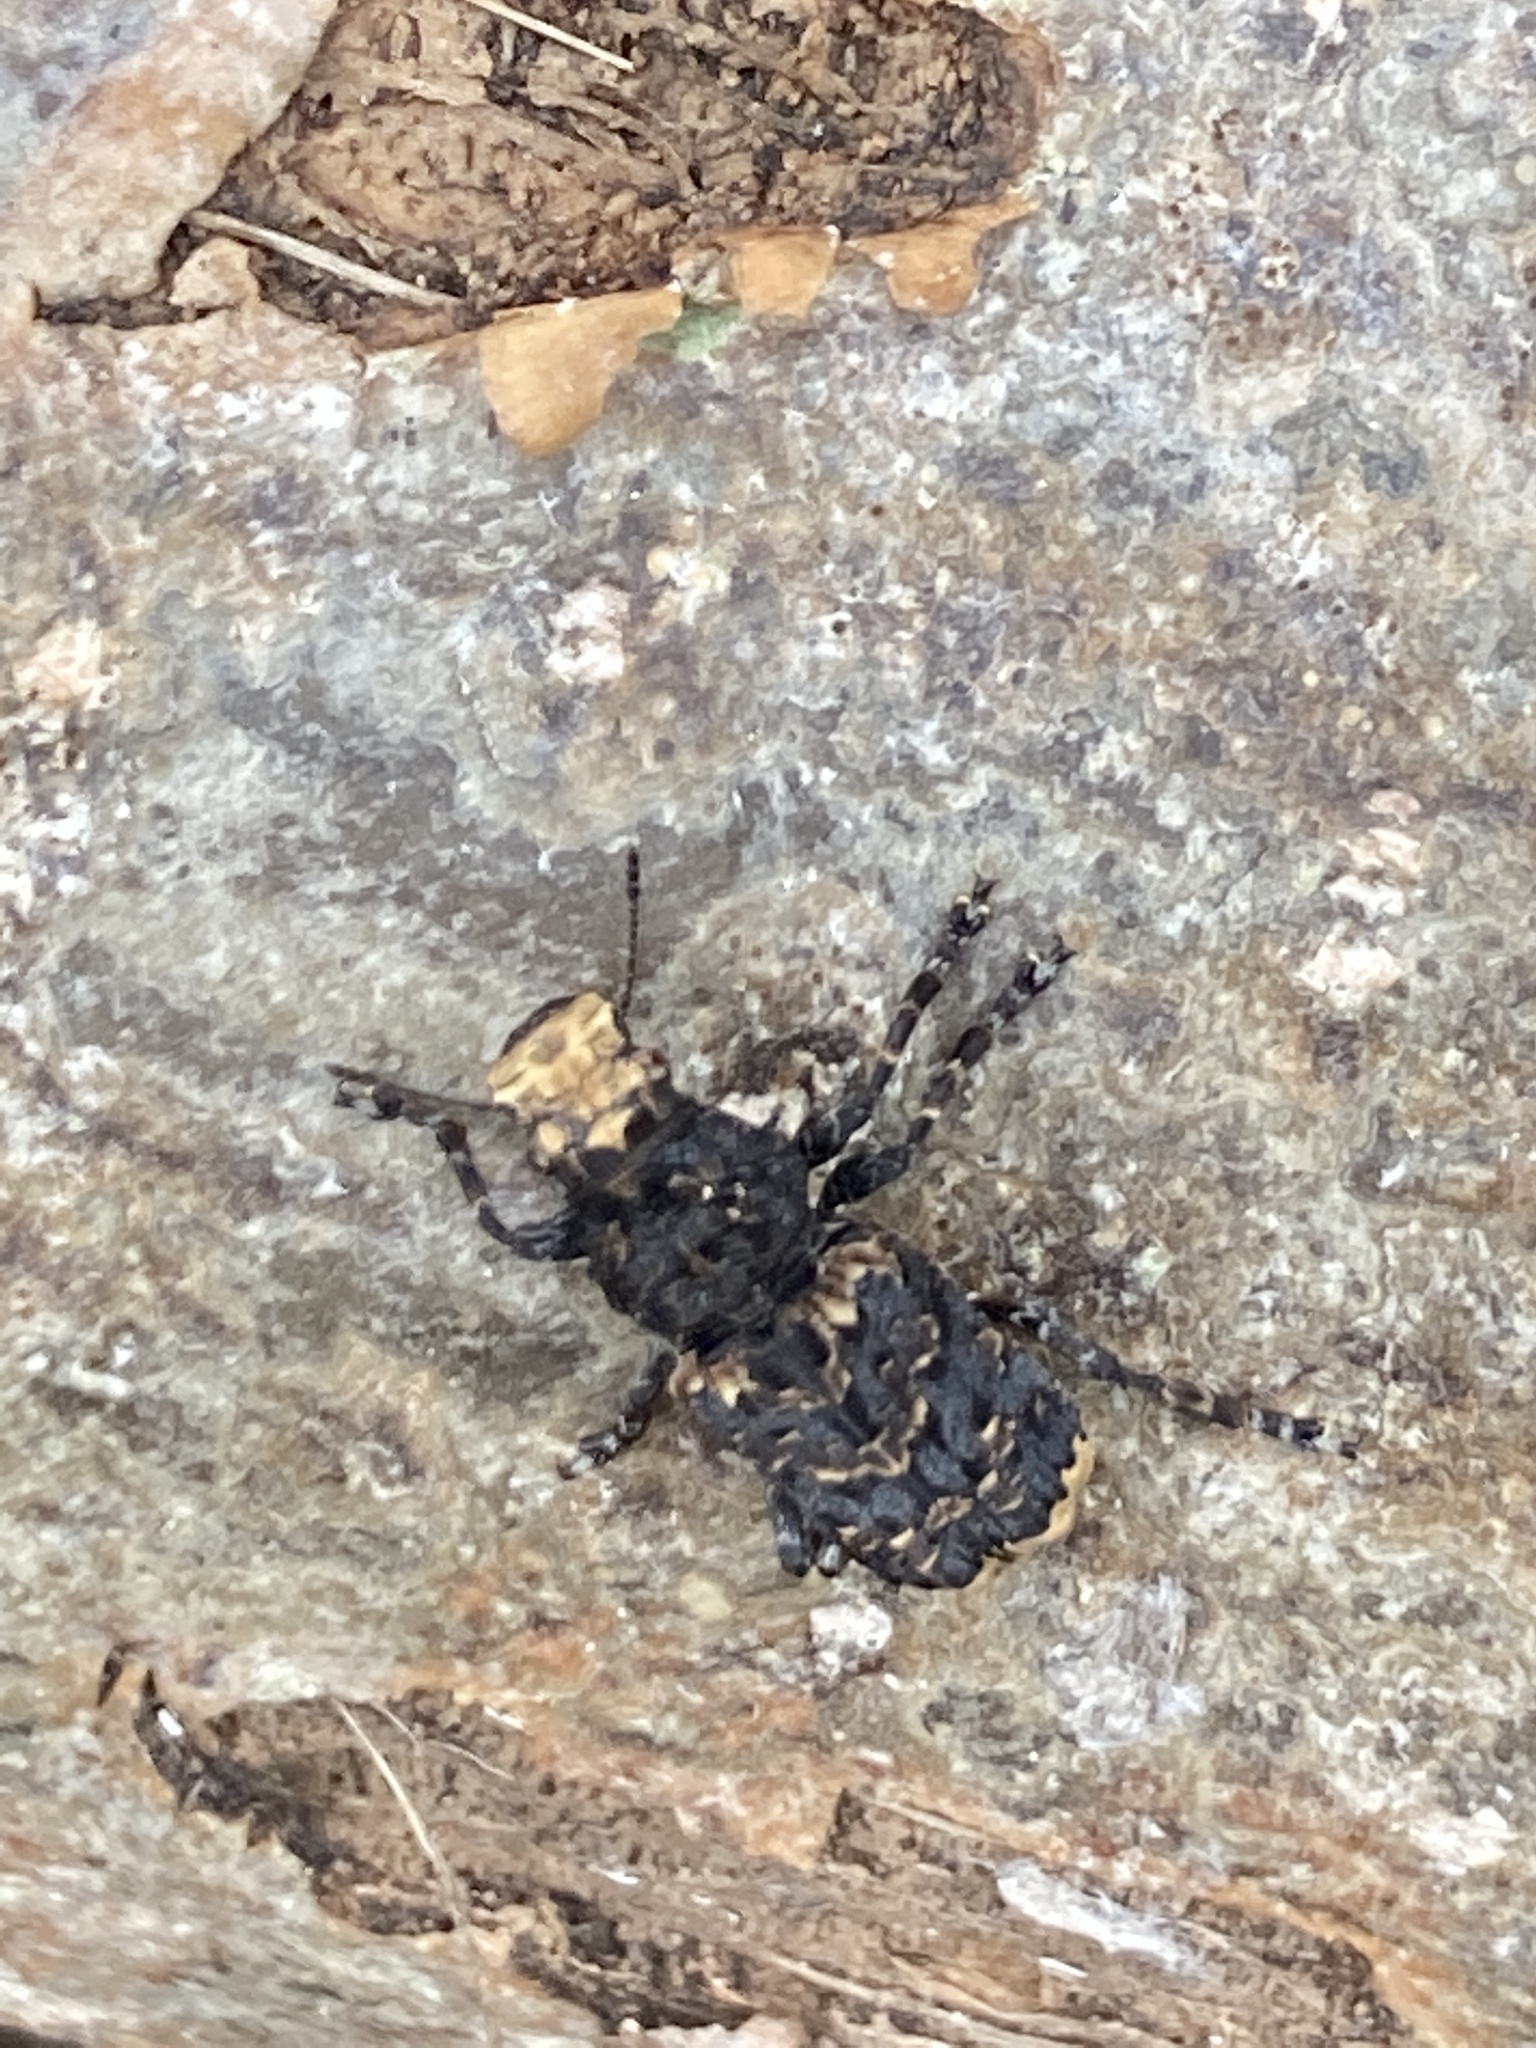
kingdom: Animalia
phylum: Arthropoda
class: Insecta
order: Coleoptera
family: Anthribidae
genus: Platyrhinus
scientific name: Platyrhinus resinosus
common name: Cramp-ball fungus weevil
